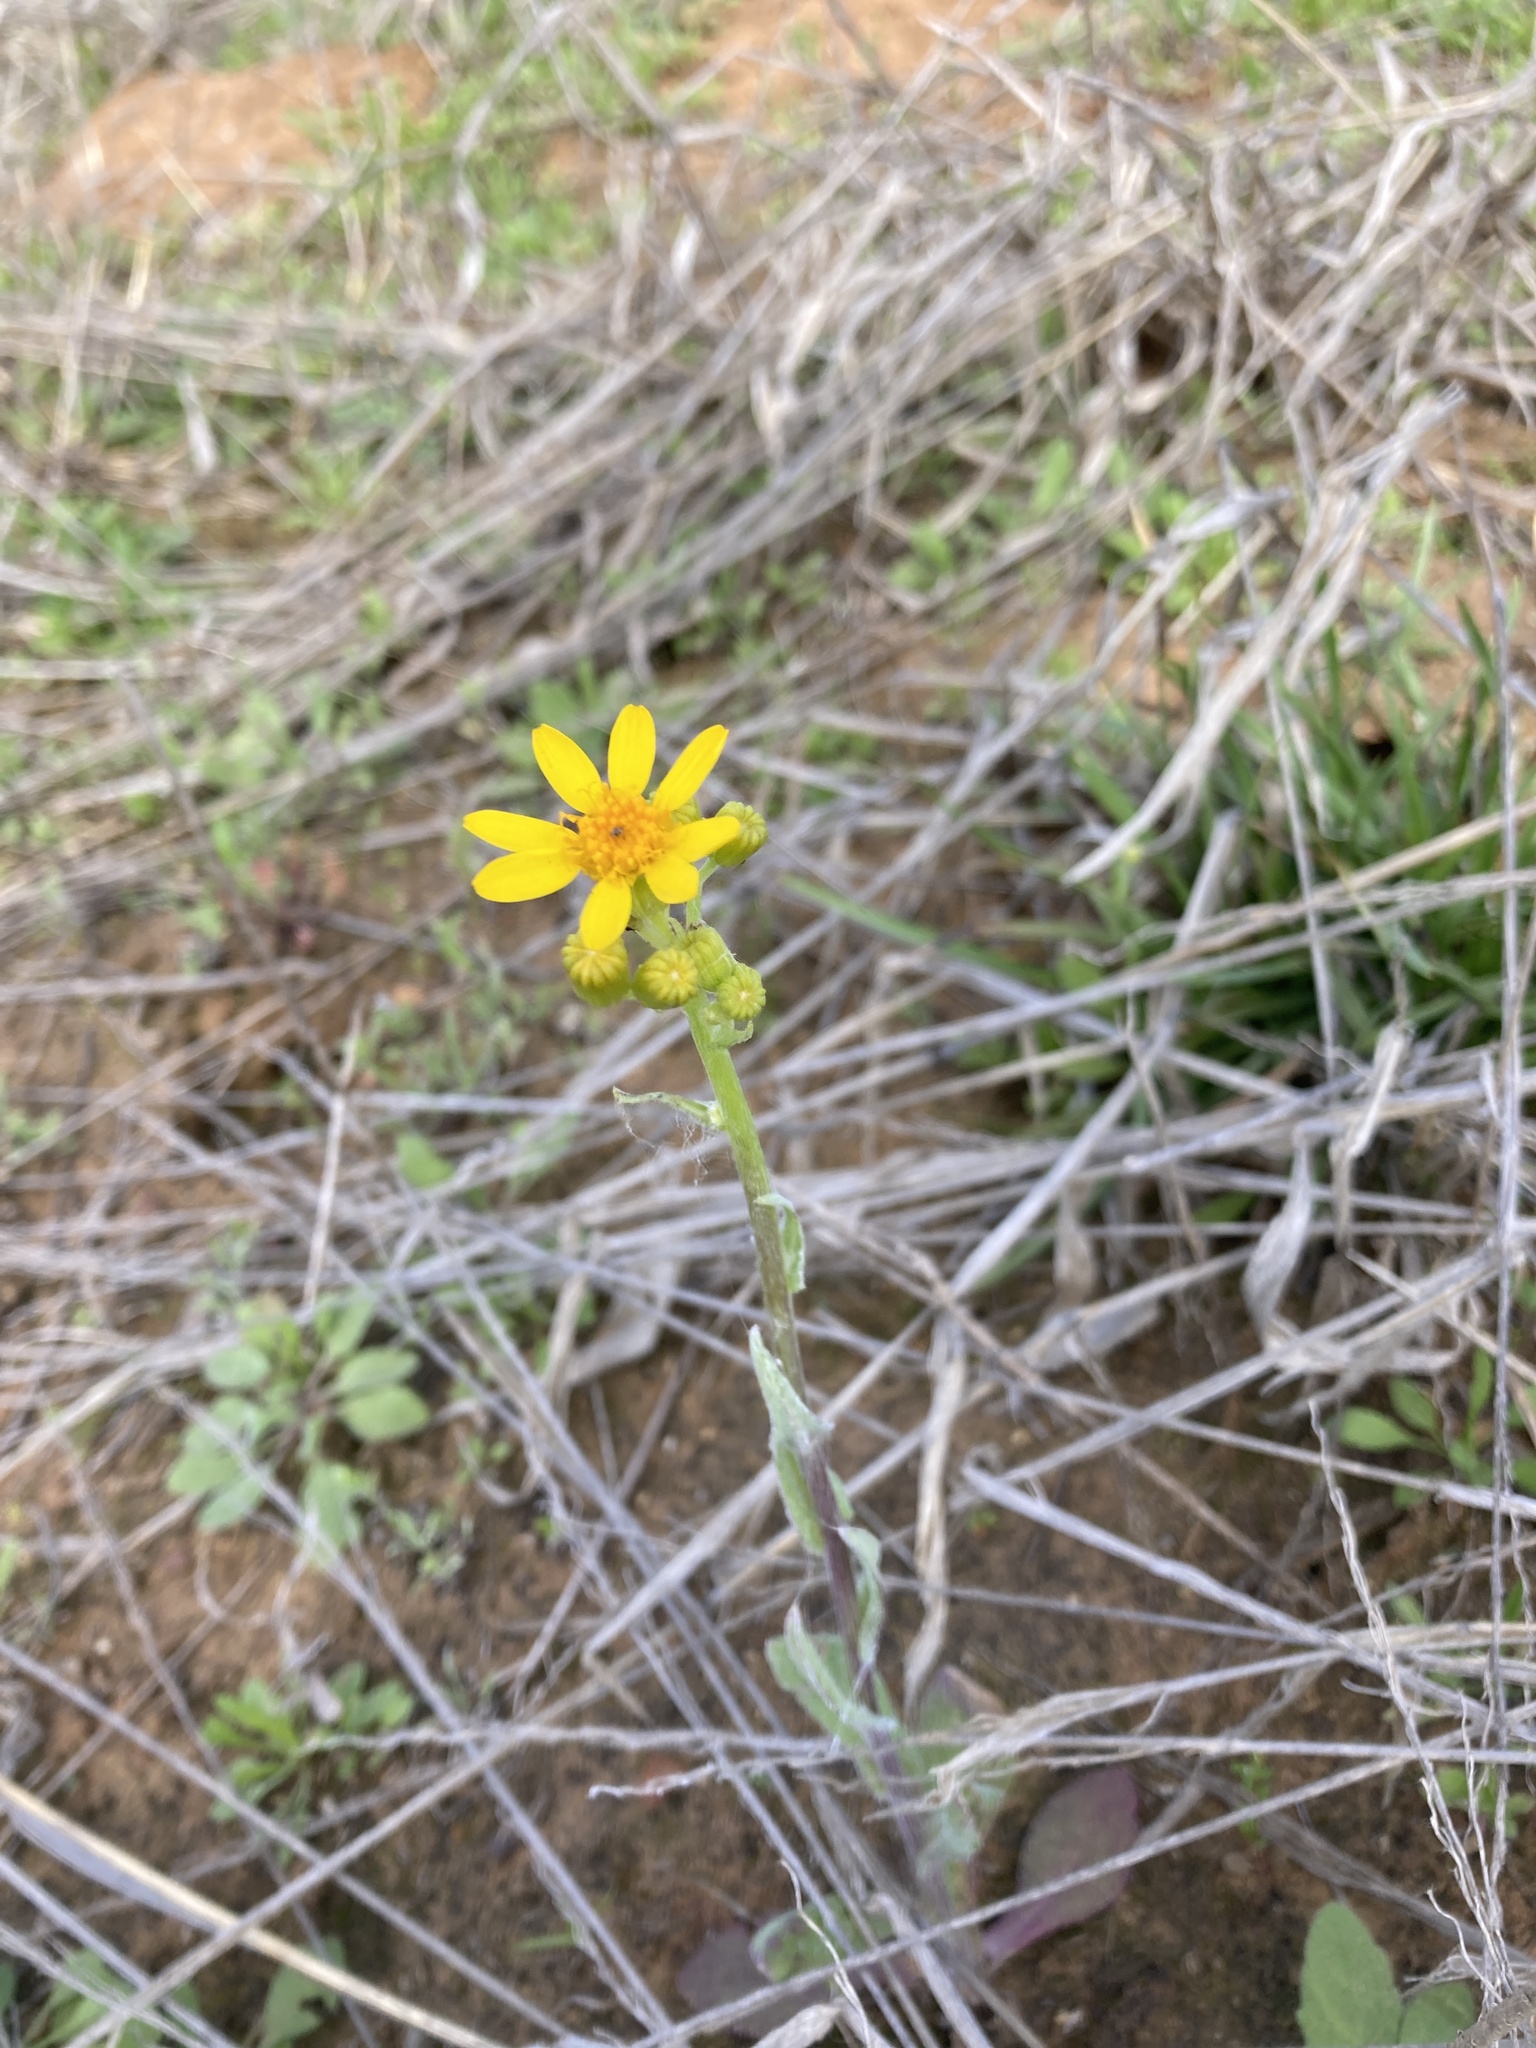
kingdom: Plantae
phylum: Tracheophyta
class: Magnoliopsida
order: Asterales
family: Asteraceae
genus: Senecio
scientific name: Senecio ampullaceus
